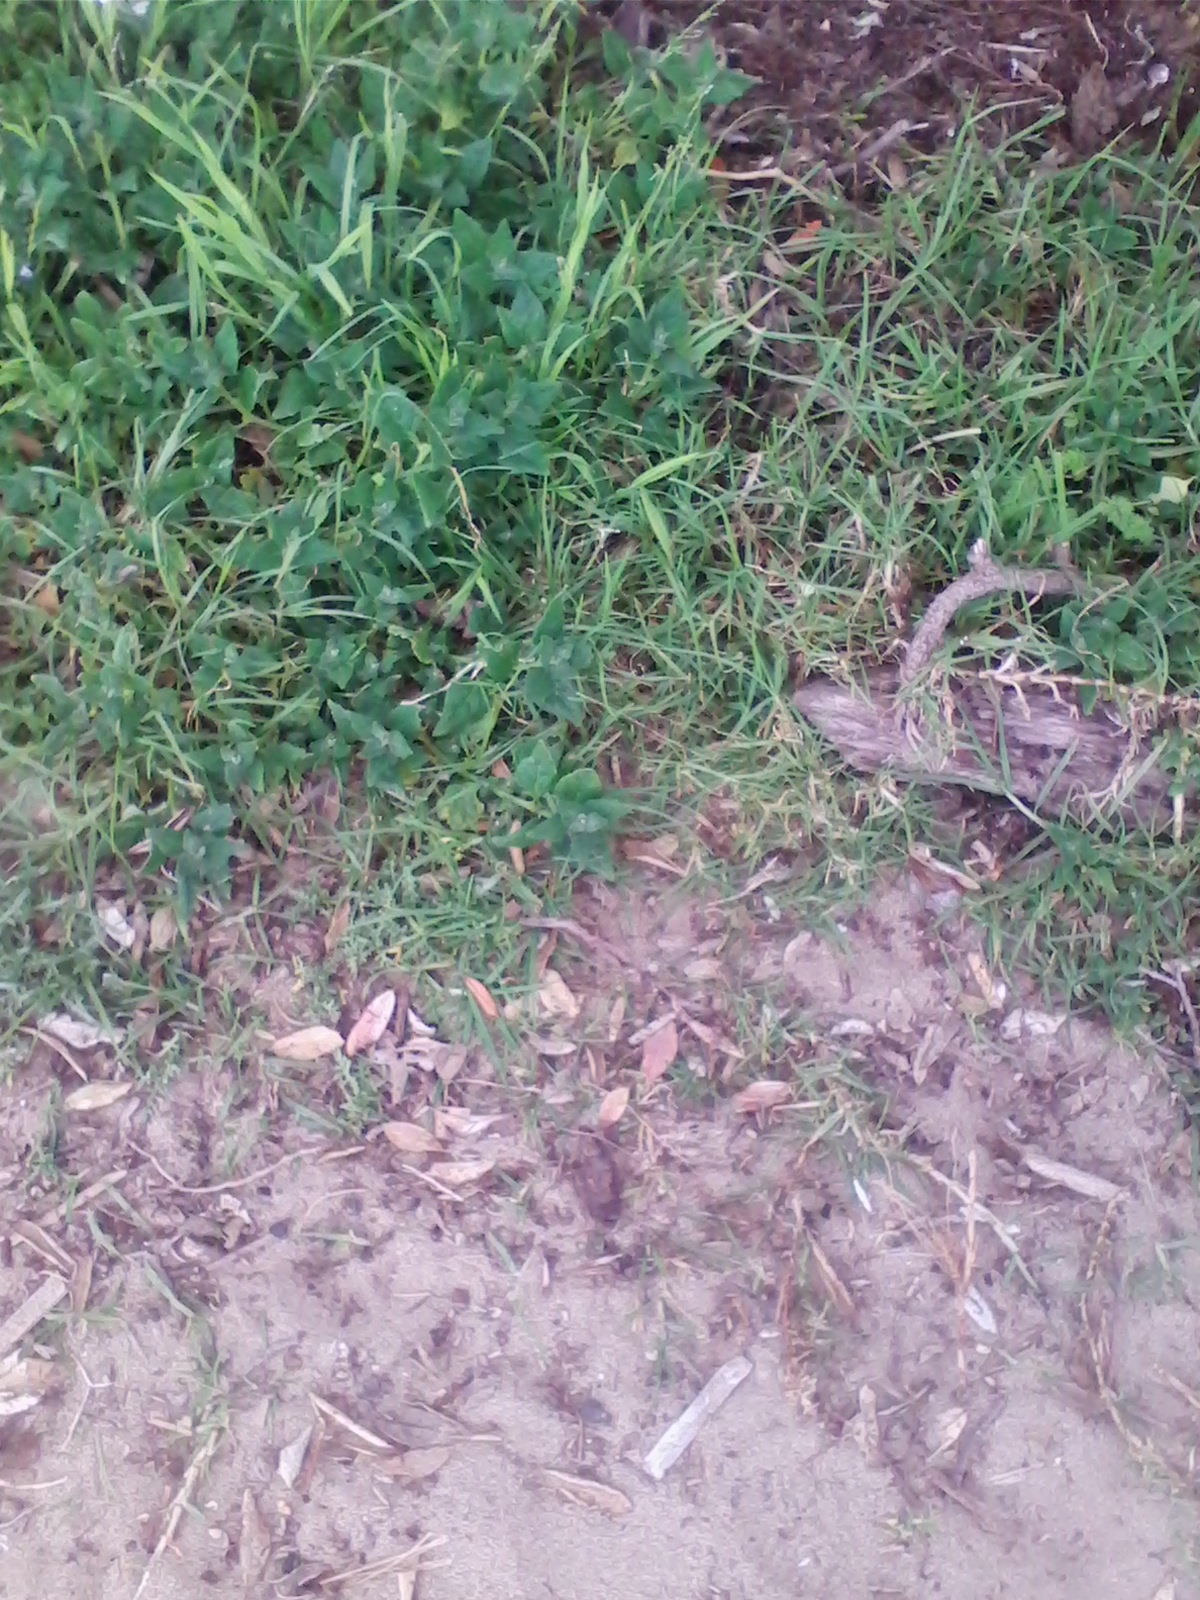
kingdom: Plantae
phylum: Tracheophyta
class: Magnoliopsida
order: Caryophyllales
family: Aizoaceae
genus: Tetragonia
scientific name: Tetragonia tetragonoides
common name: New zealand-spinach
